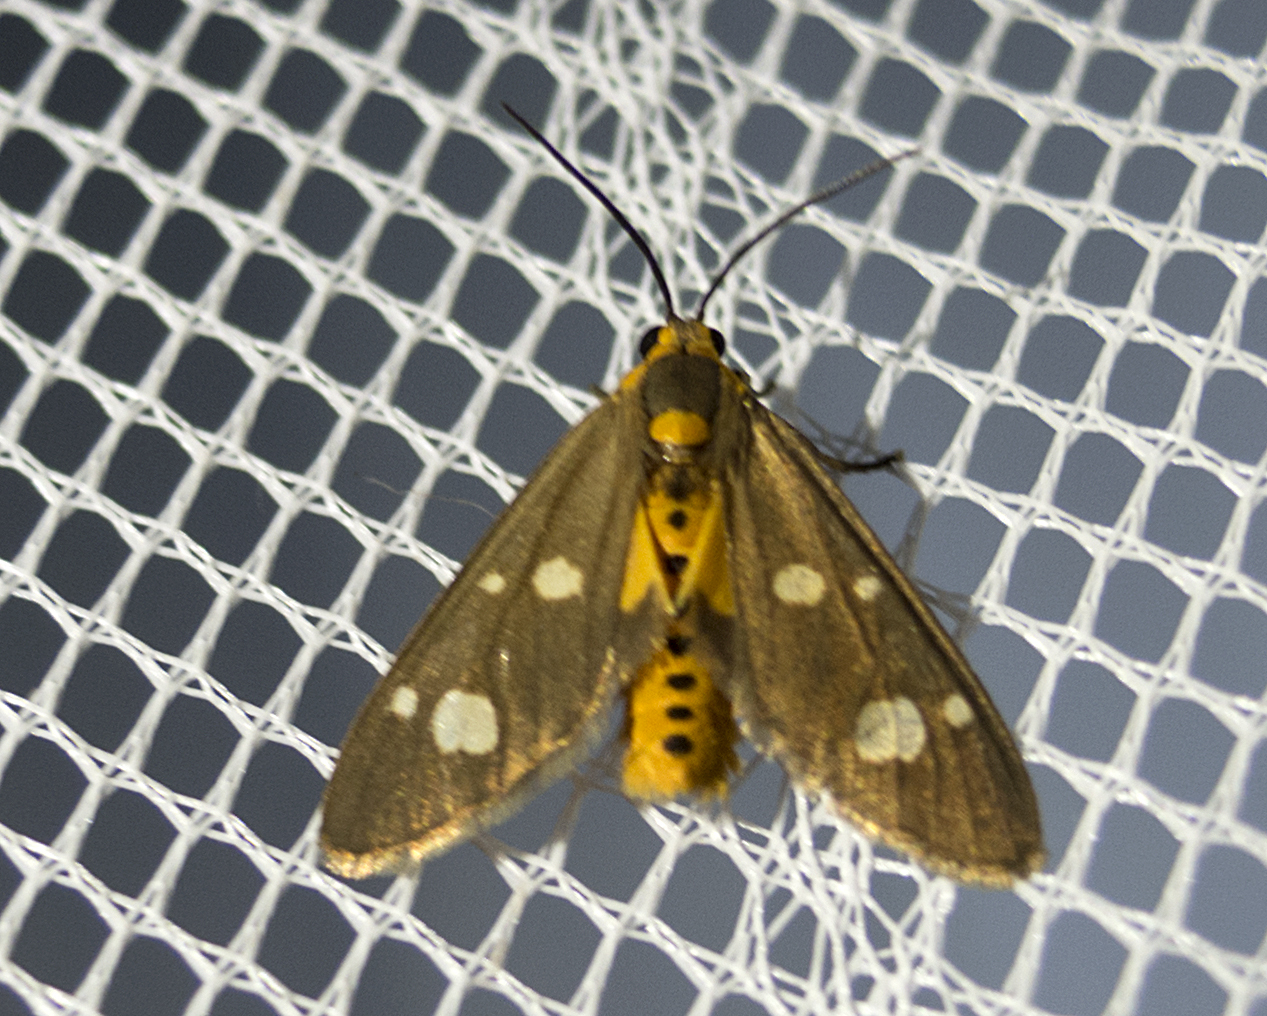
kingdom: Animalia
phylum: Arthropoda
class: Insecta
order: Lepidoptera
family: Erebidae
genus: Dysauxes
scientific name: Dysauxes punctata
